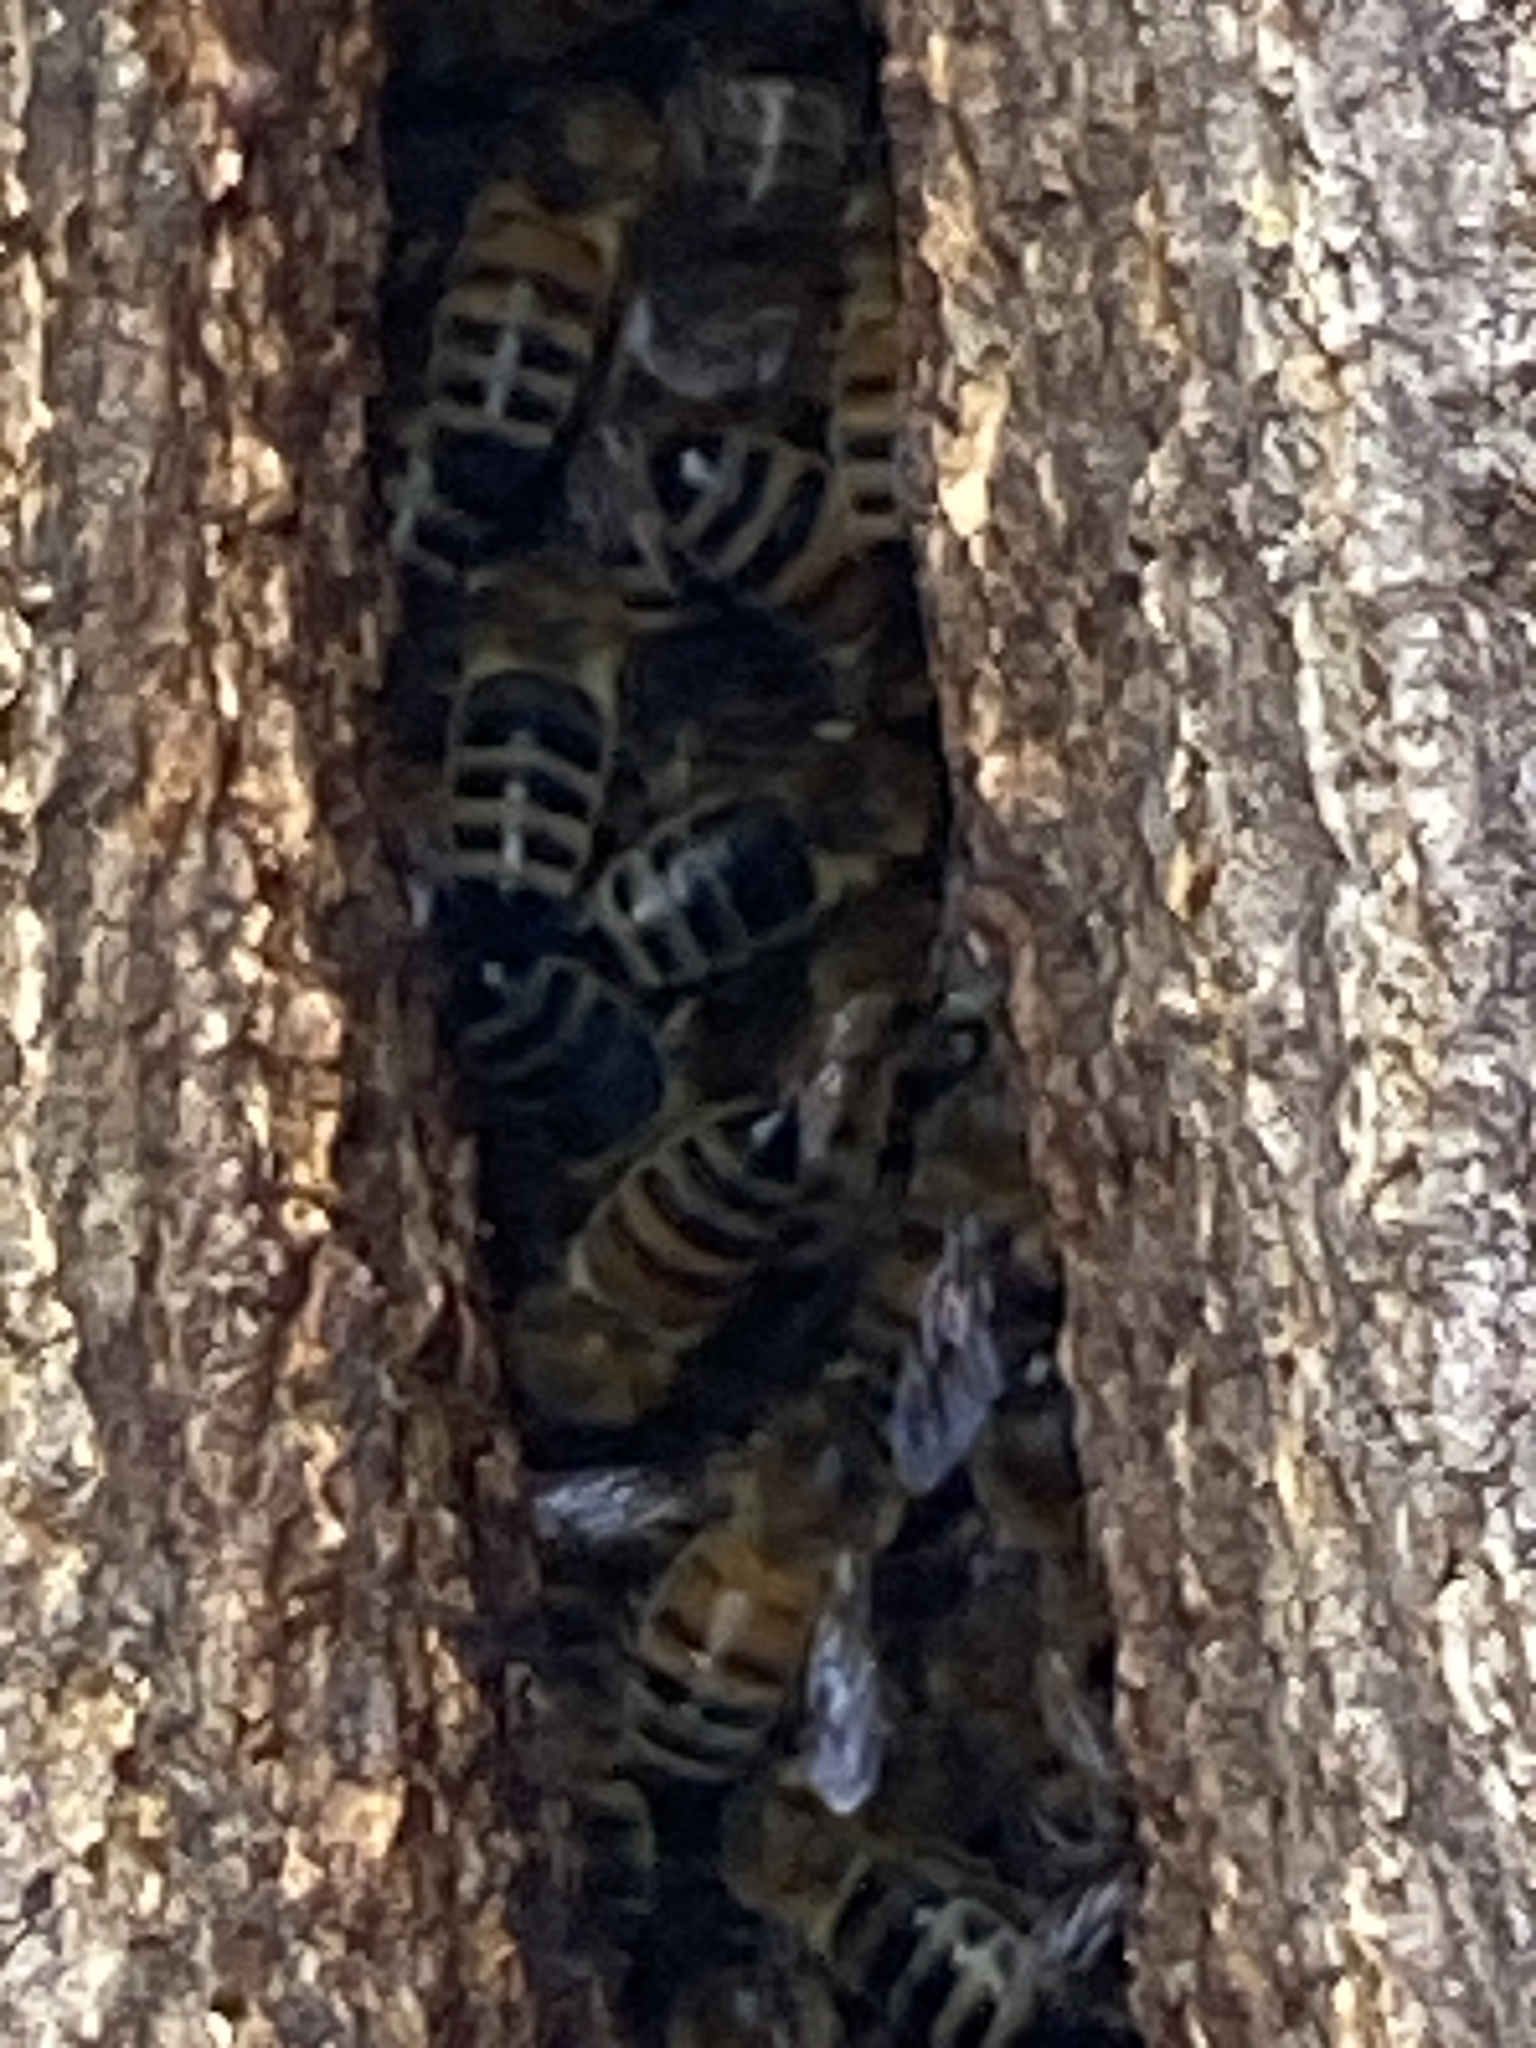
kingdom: Animalia
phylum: Arthropoda
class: Insecta
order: Hymenoptera
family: Apidae
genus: Apis
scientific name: Apis mellifera
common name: Honey bee
